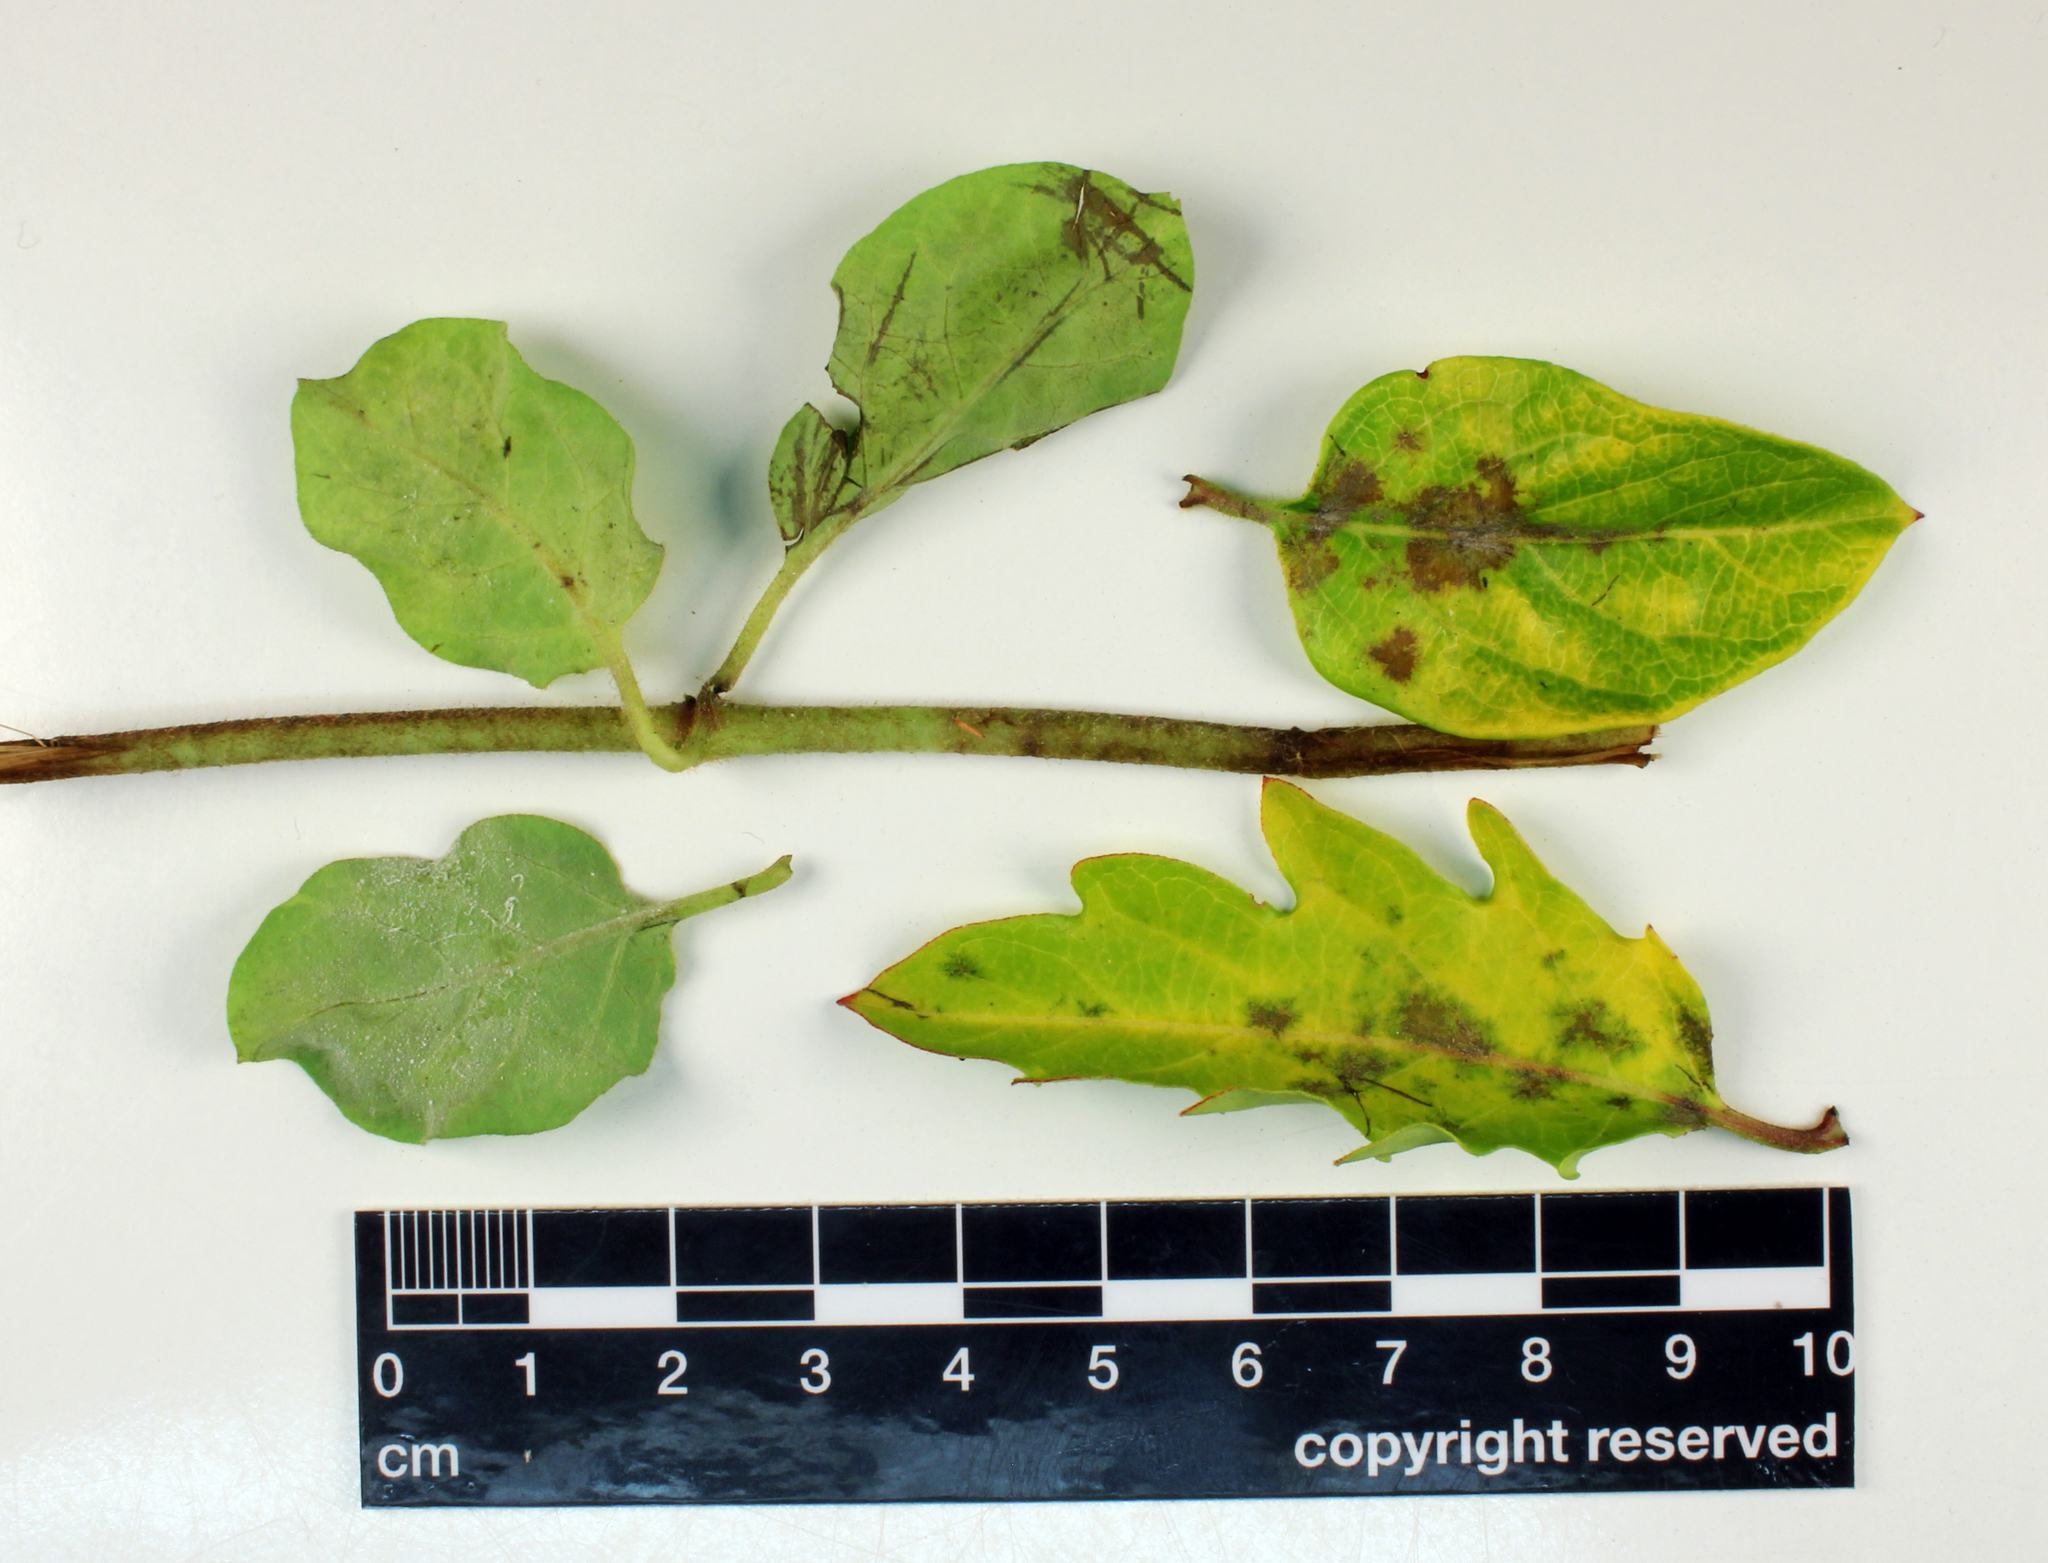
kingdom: Fungi
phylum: Ascomycota
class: Leotiomycetes
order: Helotiales
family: Erysiphaceae
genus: Erysiphe
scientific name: Erysiphe lonicerae
